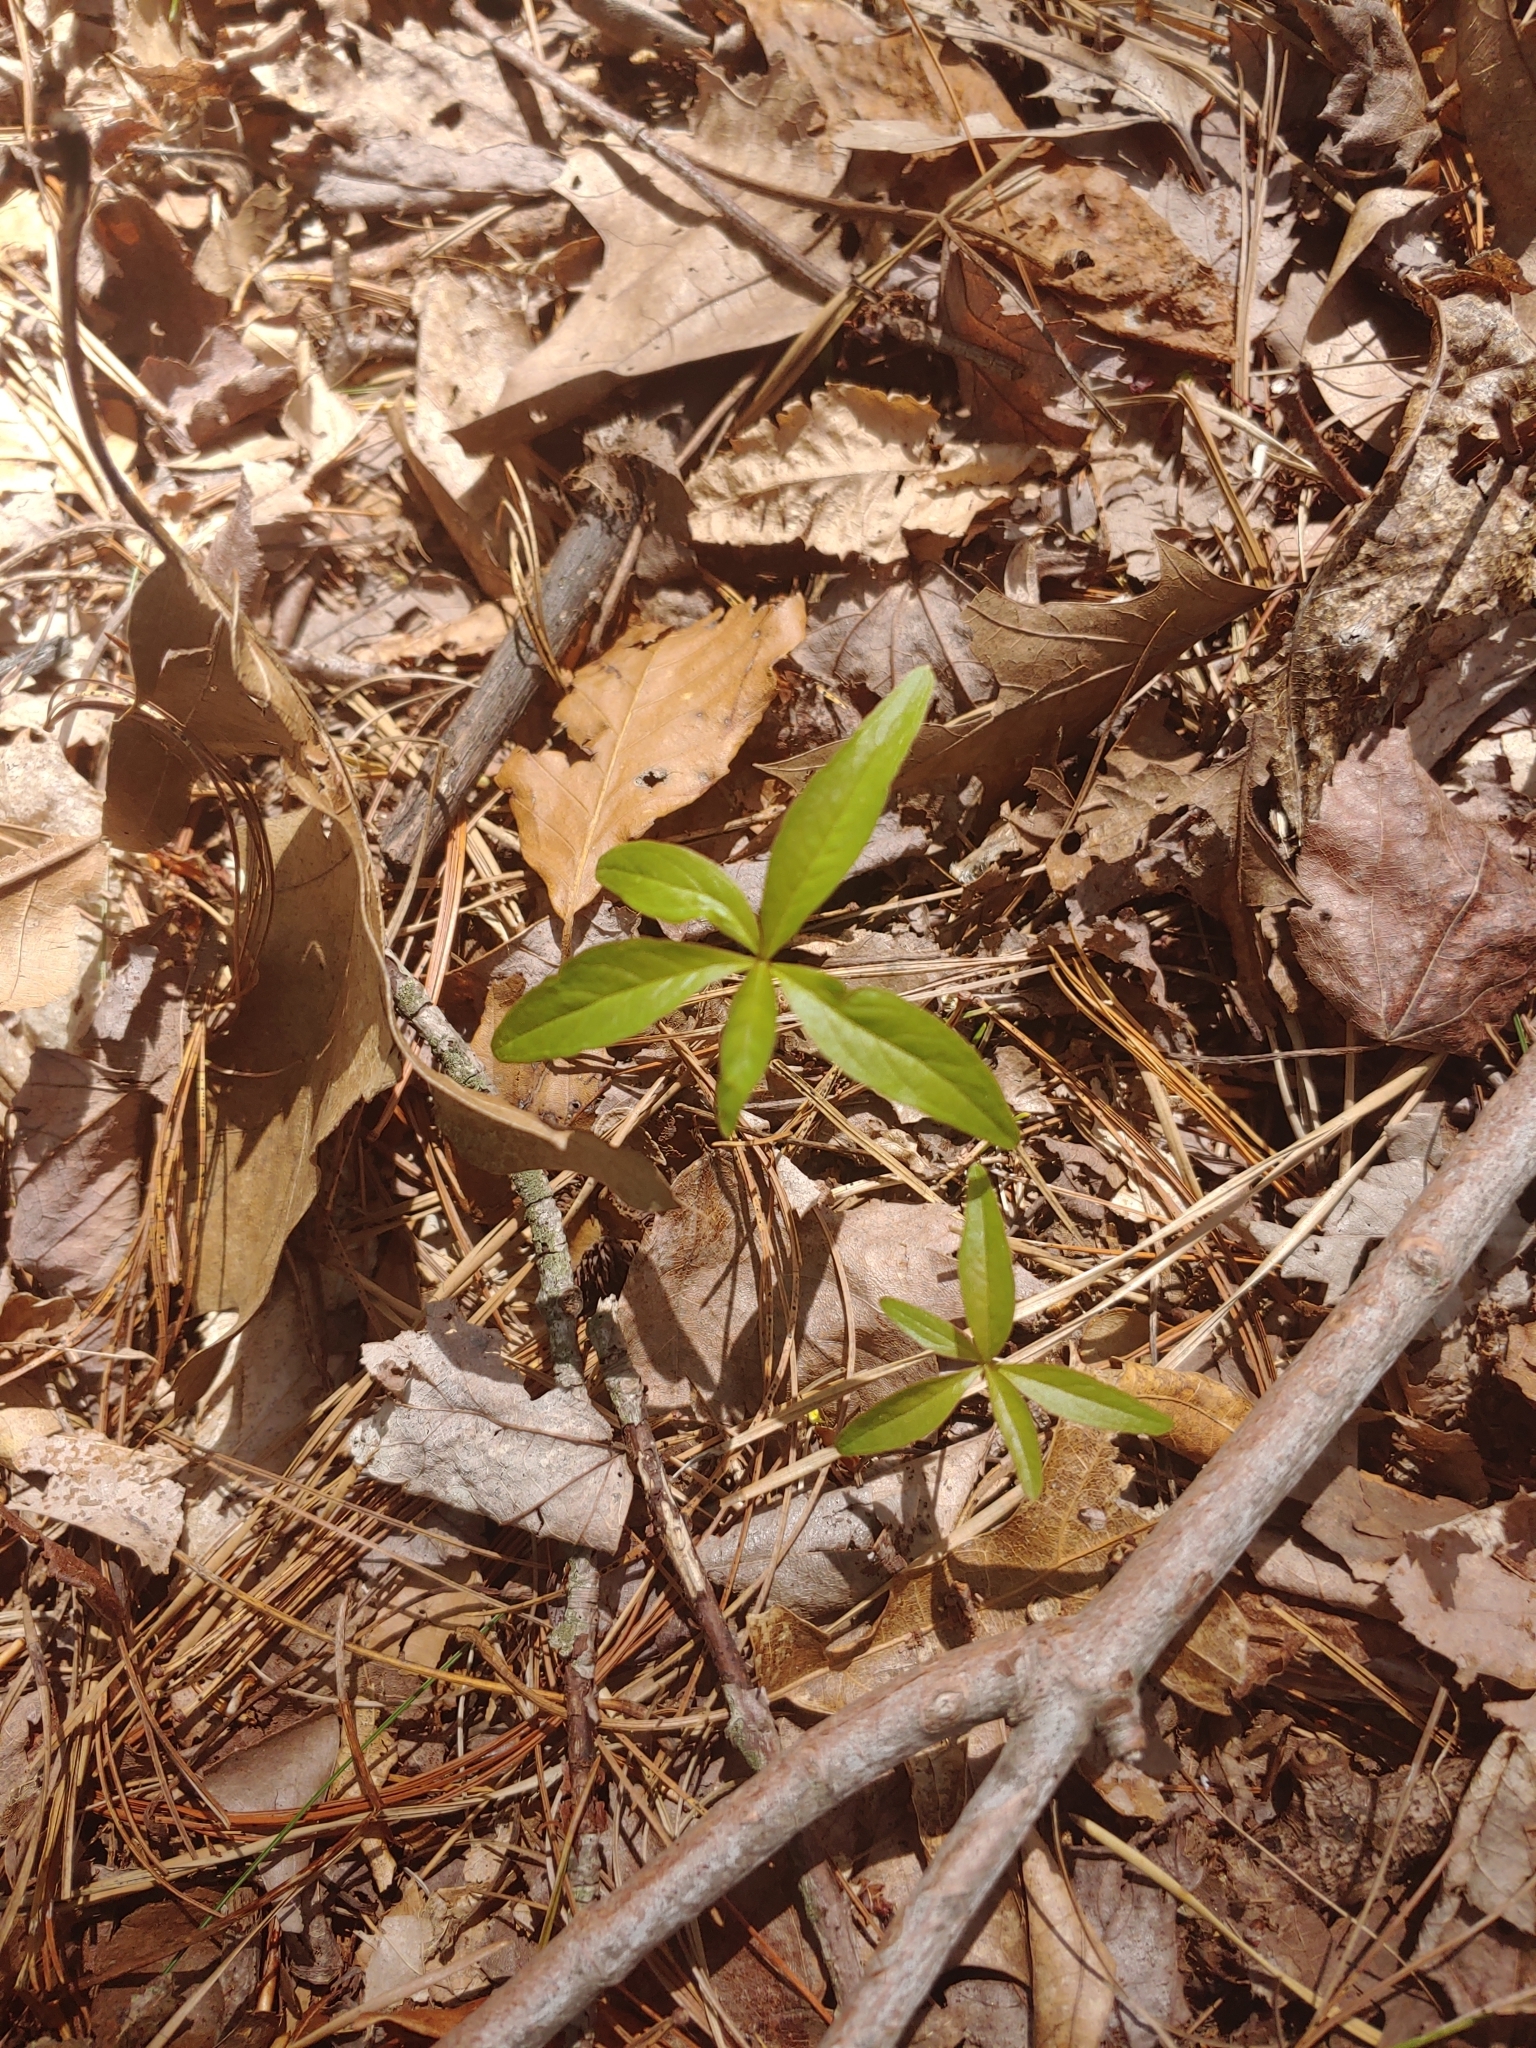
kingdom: Plantae
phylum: Tracheophyta
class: Magnoliopsida
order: Ericales
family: Primulaceae
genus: Lysimachia
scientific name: Lysimachia borealis
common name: American starflower
